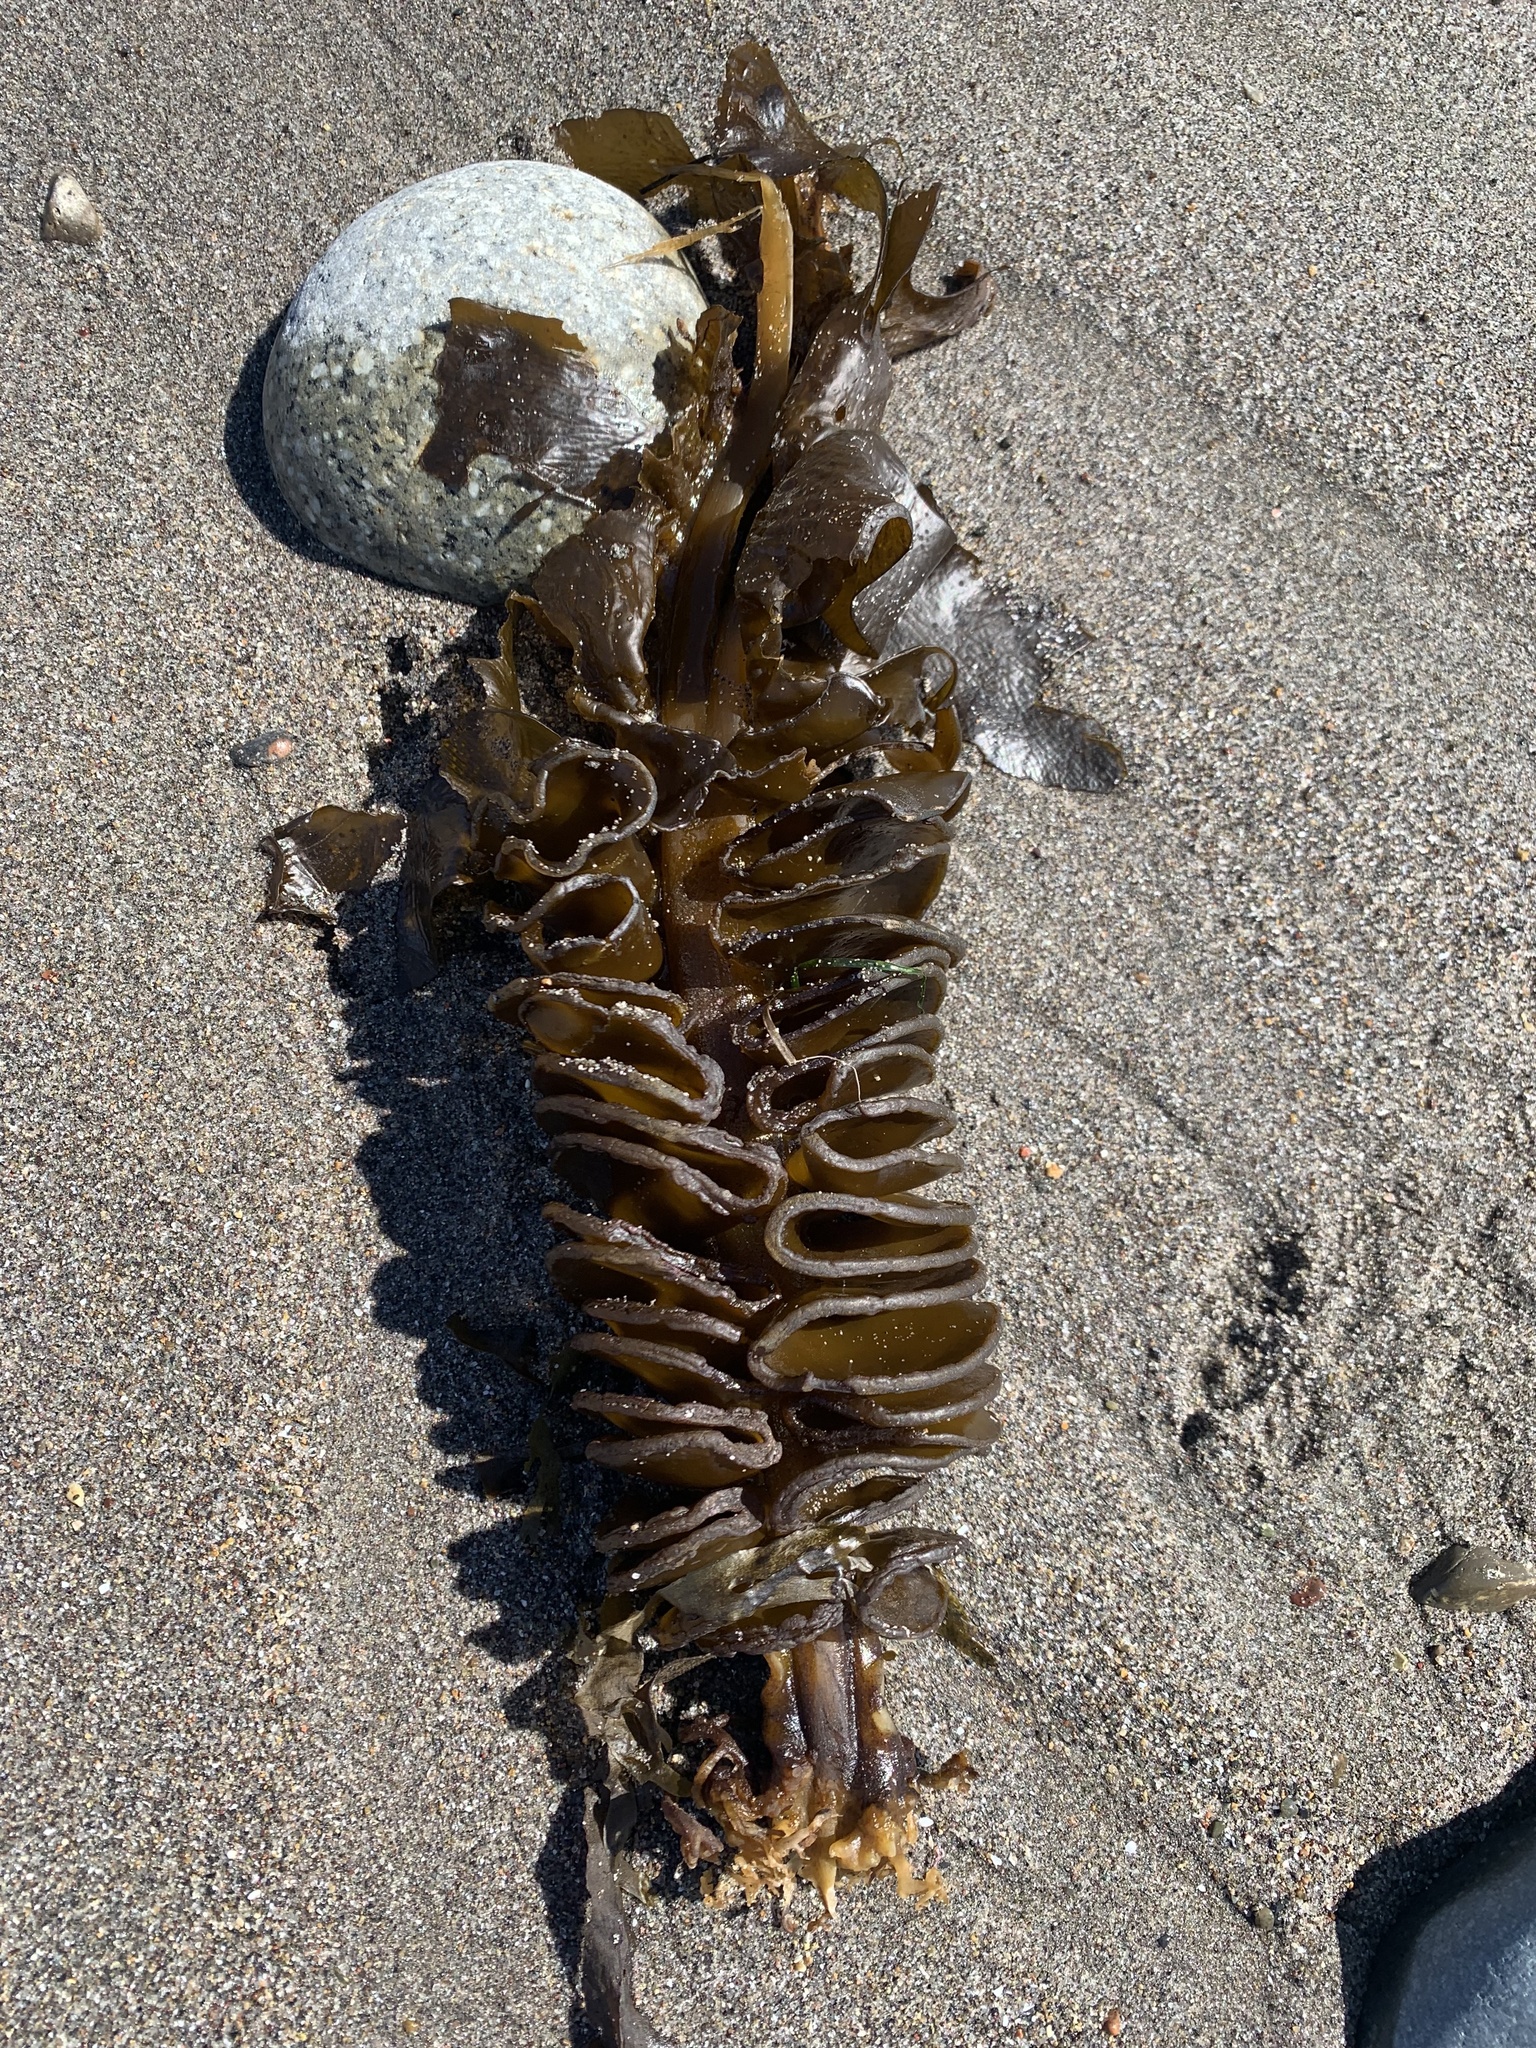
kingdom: Chromista
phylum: Ochrophyta
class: Phaeophyceae
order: Laminariales
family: Alariaceae
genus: Undaria
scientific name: Undaria pinnatifida
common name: Asian kelp
